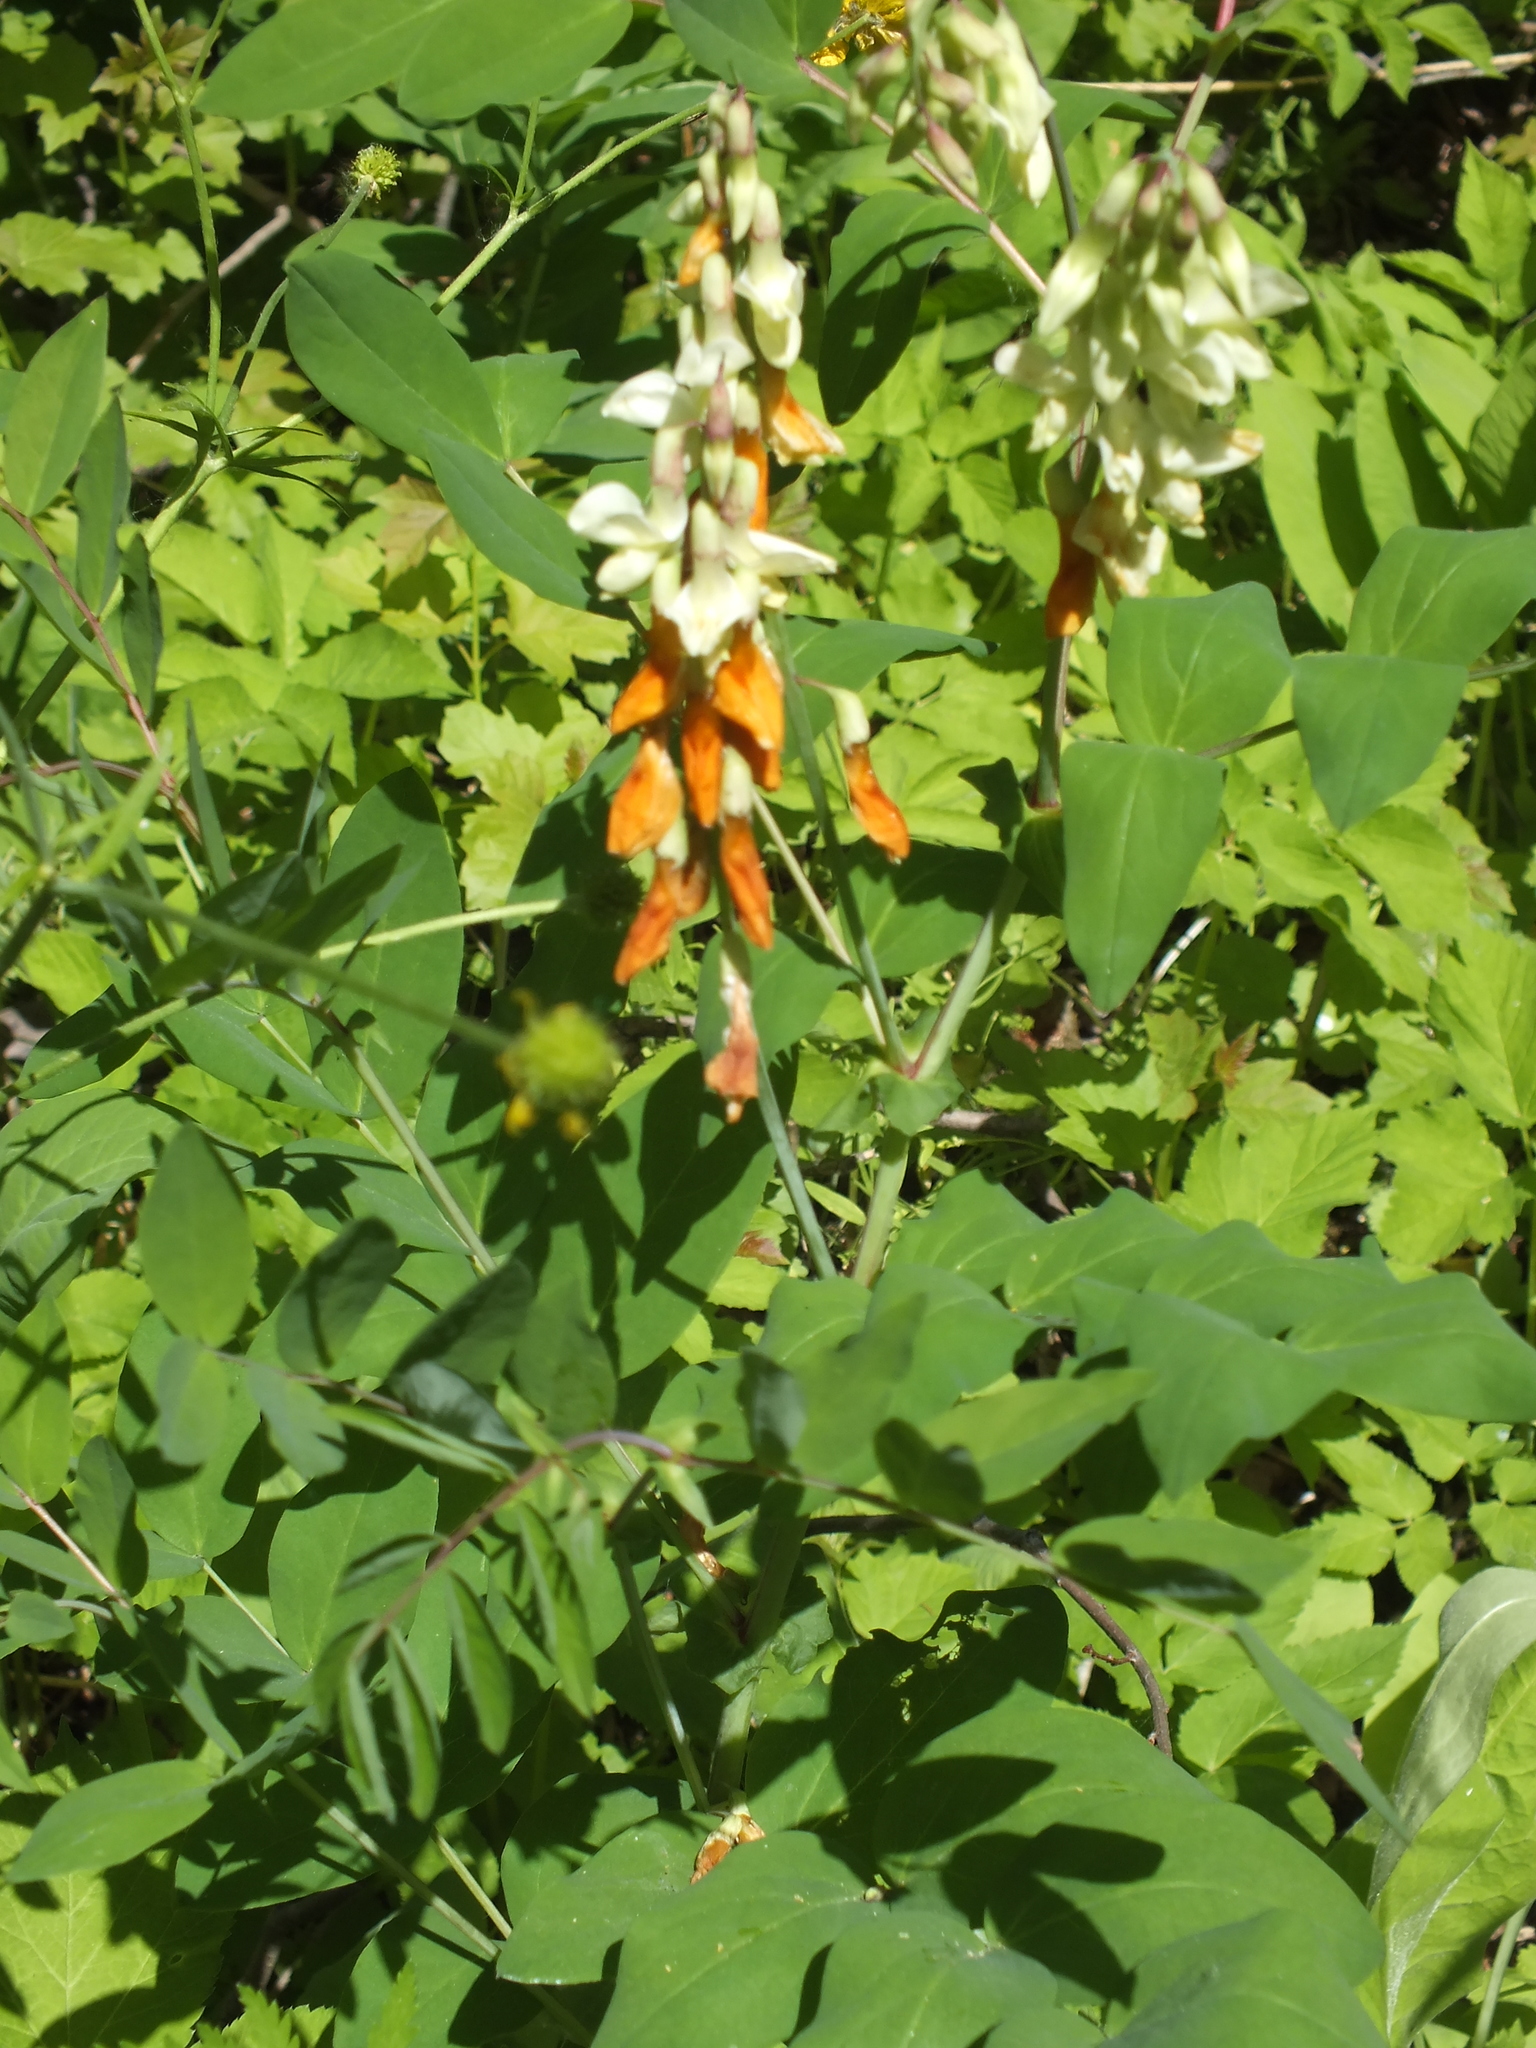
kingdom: Plantae
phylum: Tracheophyta
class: Magnoliopsida
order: Fabales
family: Fabaceae
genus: Lathyrus
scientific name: Lathyrus gmelinii
